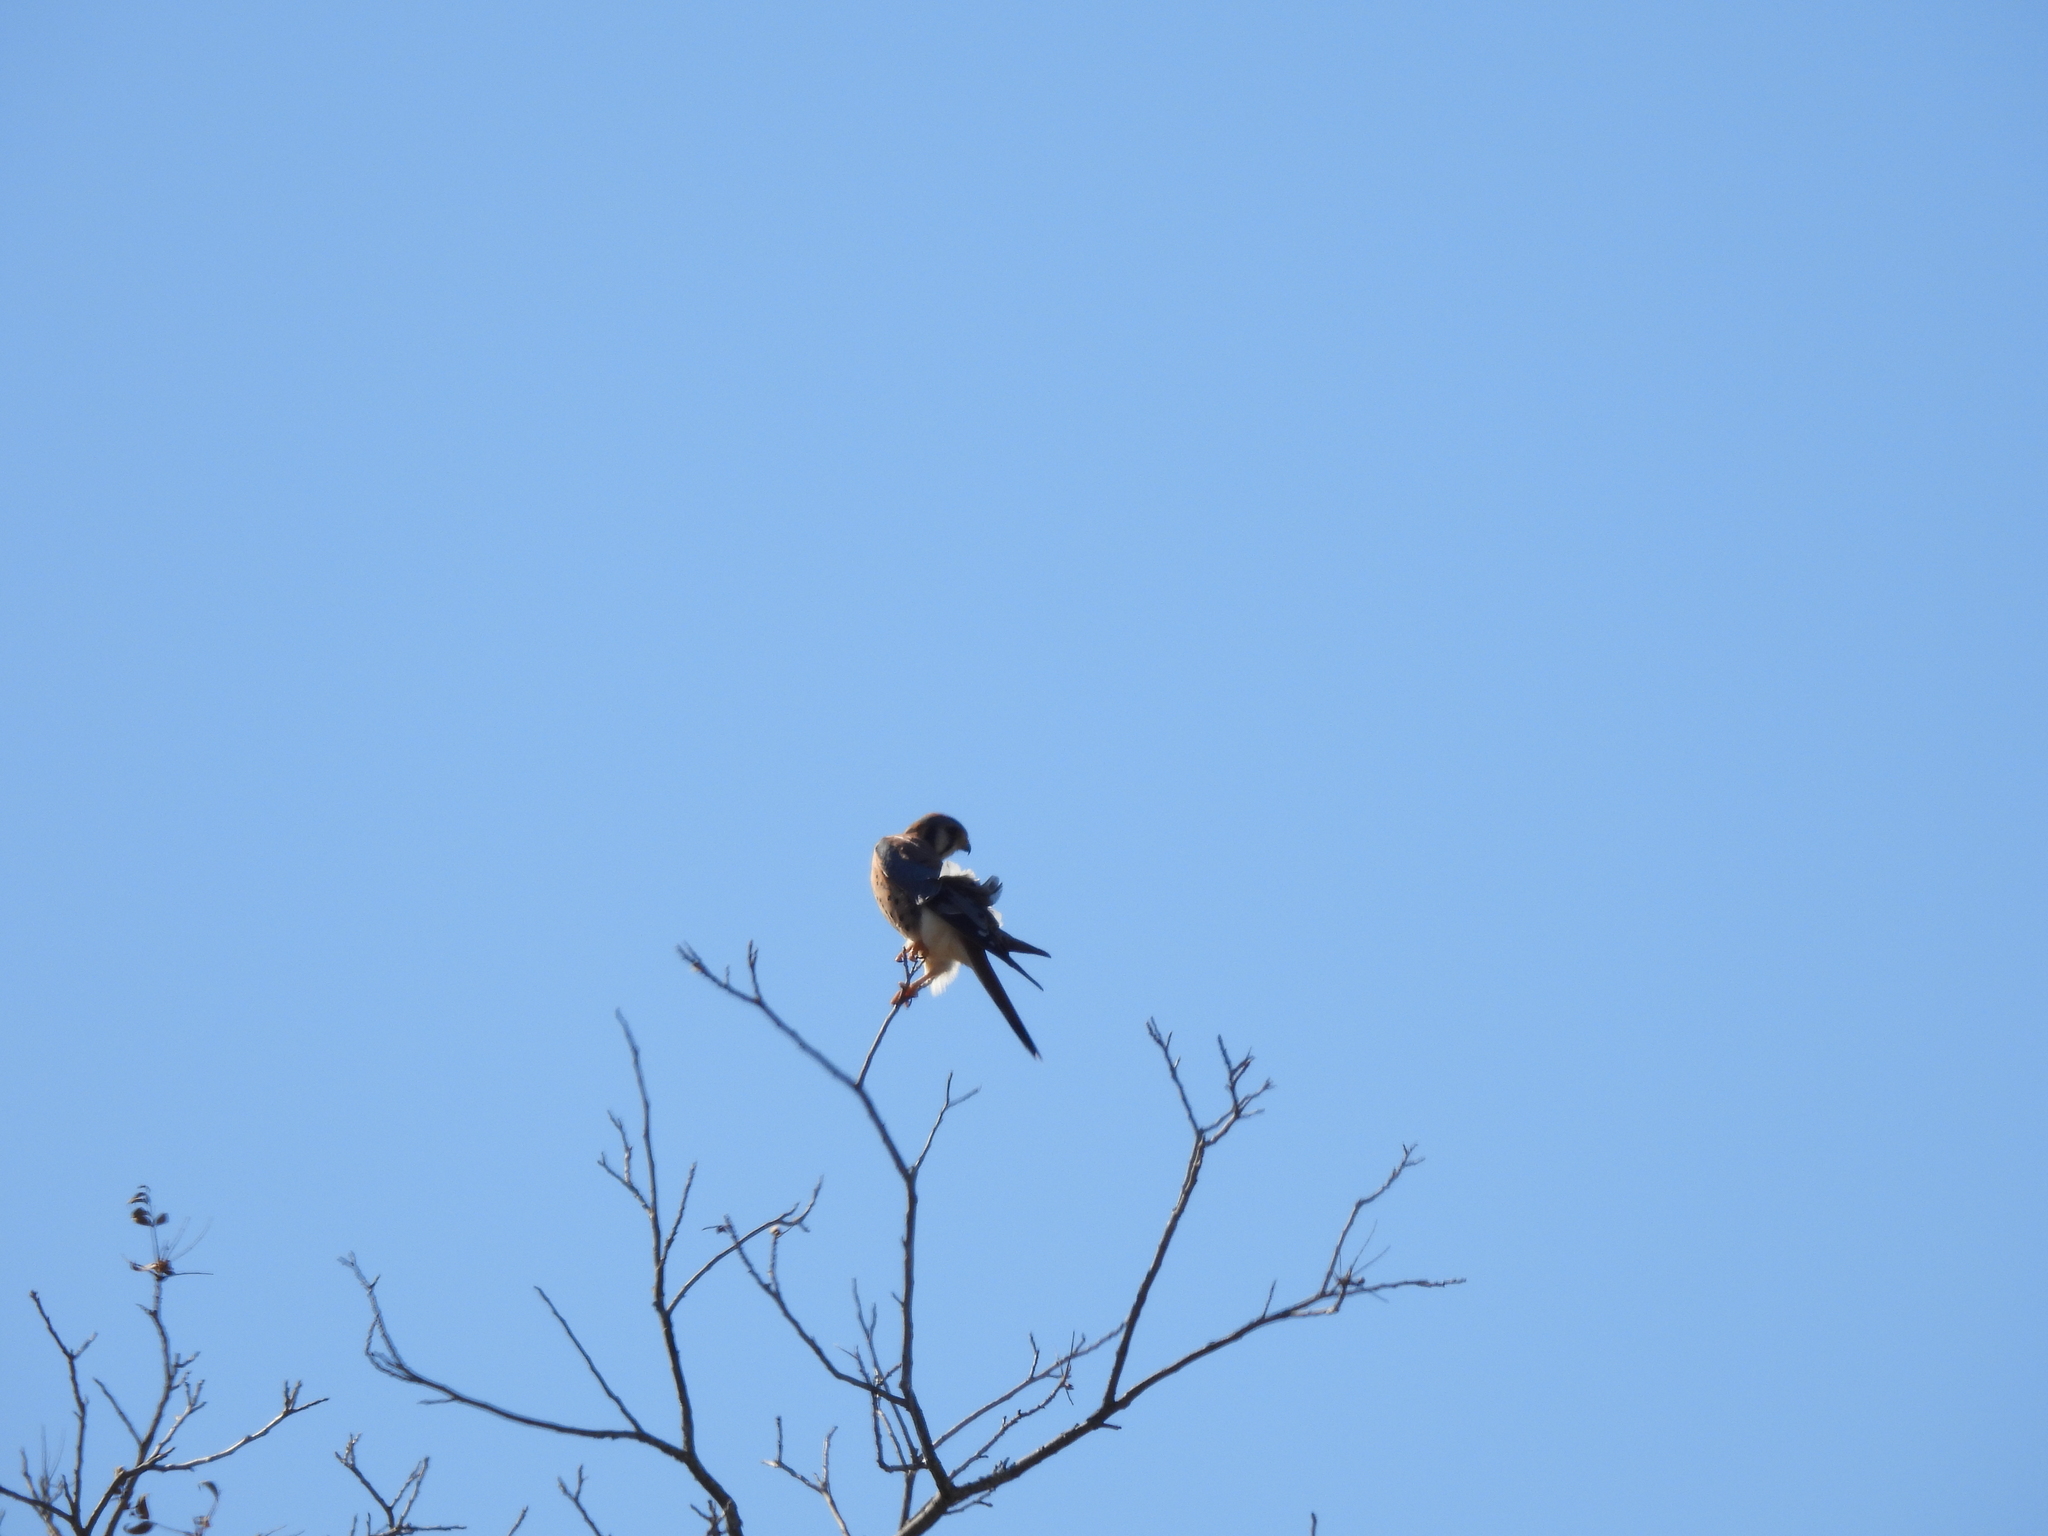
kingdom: Animalia
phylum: Chordata
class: Aves
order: Falconiformes
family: Falconidae
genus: Falco
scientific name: Falco sparverius
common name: American kestrel
